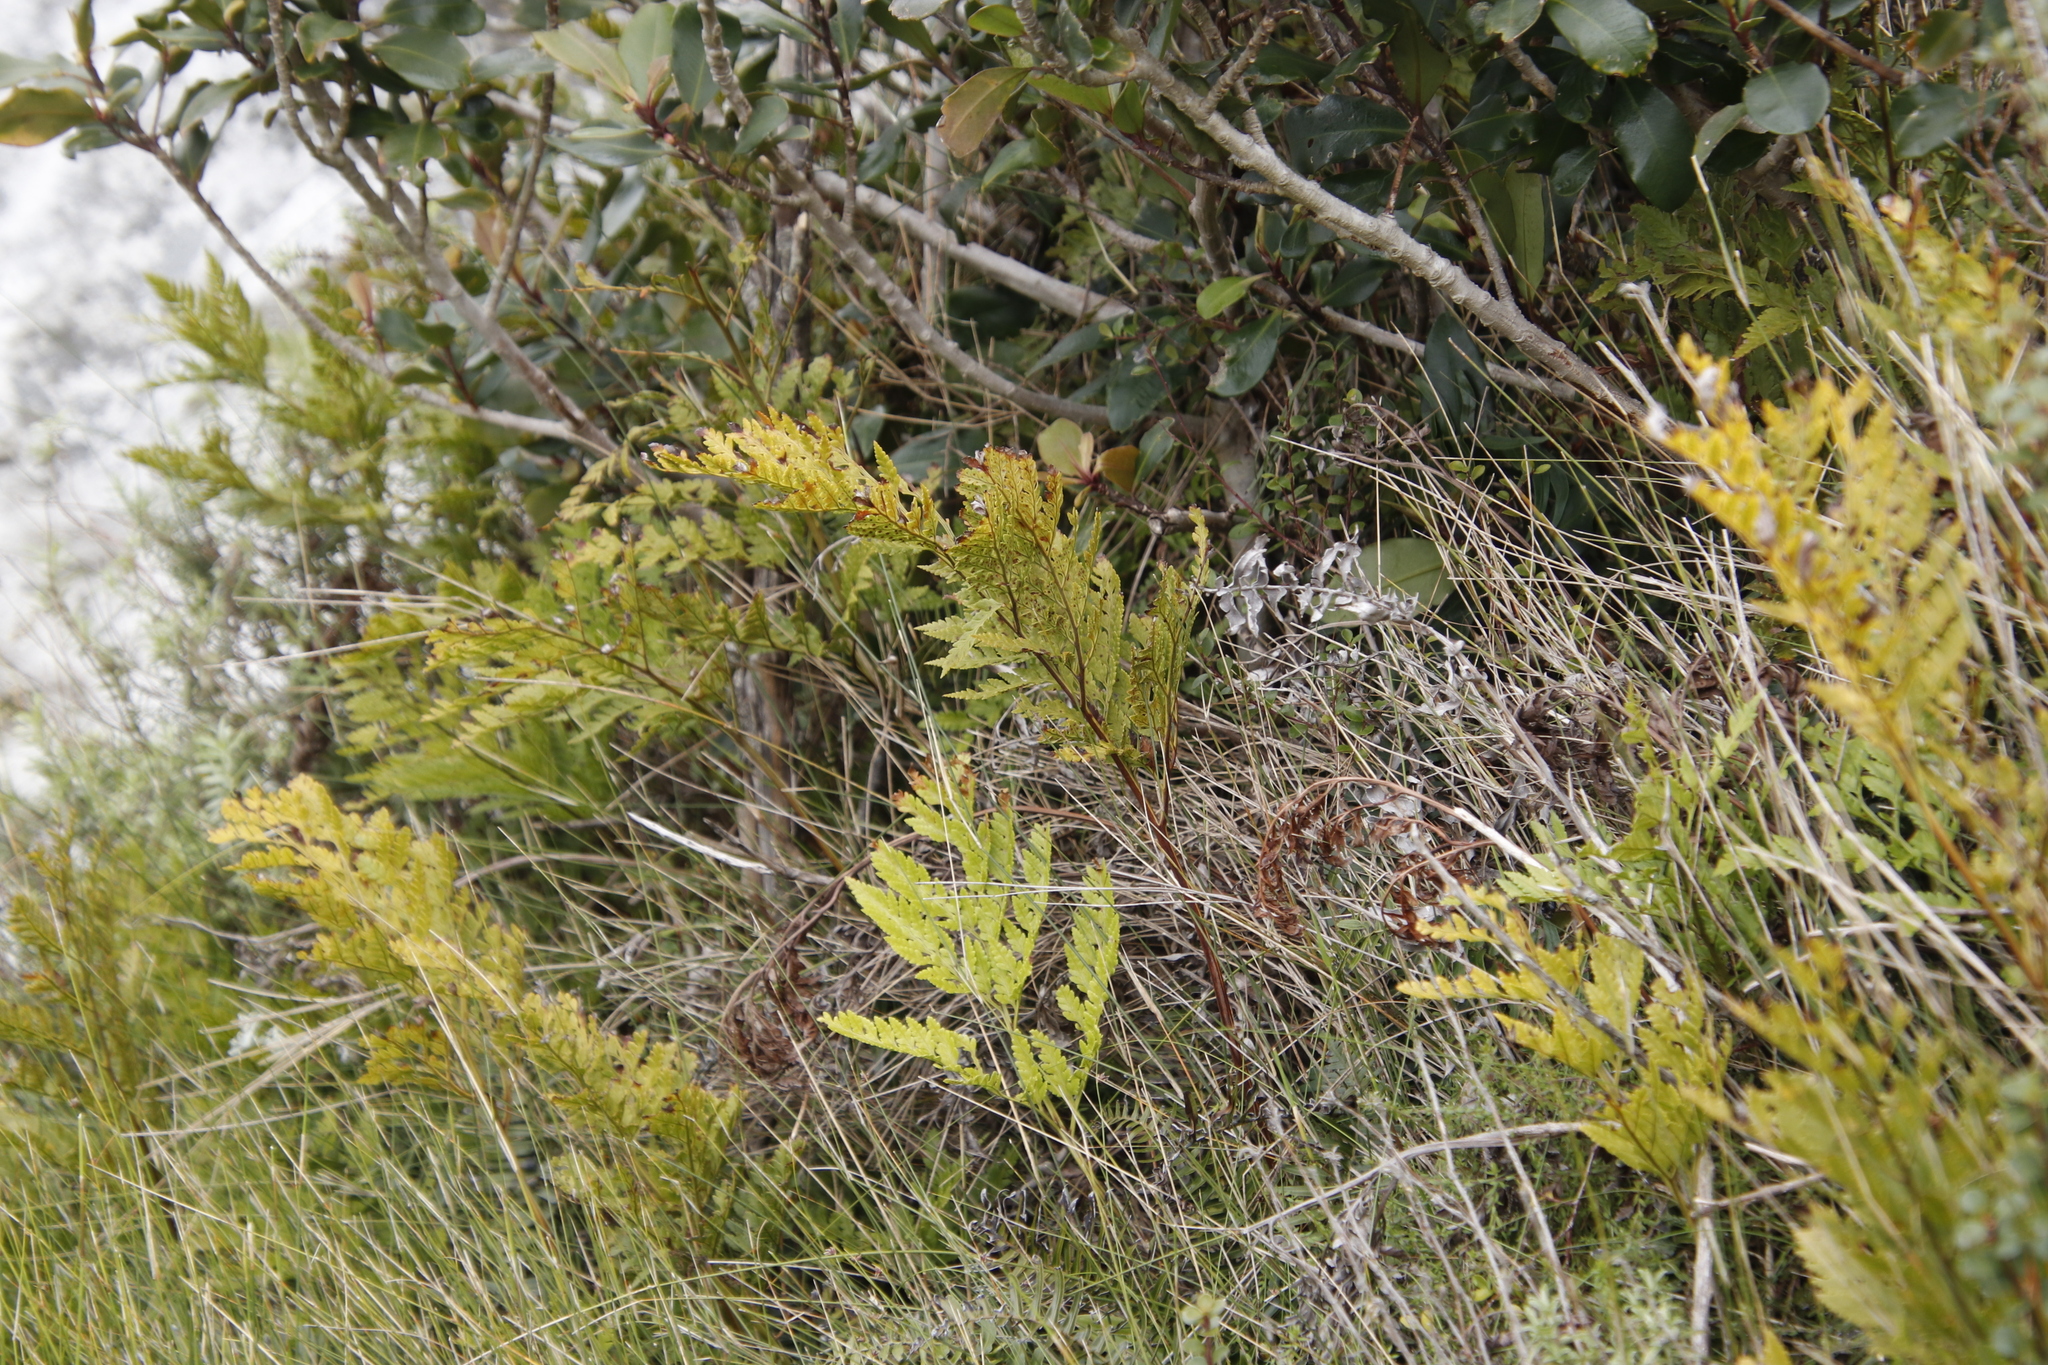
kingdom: Plantae
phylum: Tracheophyta
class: Polypodiopsida
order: Polypodiales
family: Dryopteridaceae
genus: Rumohra
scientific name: Rumohra adiantiformis
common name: Leather fern
